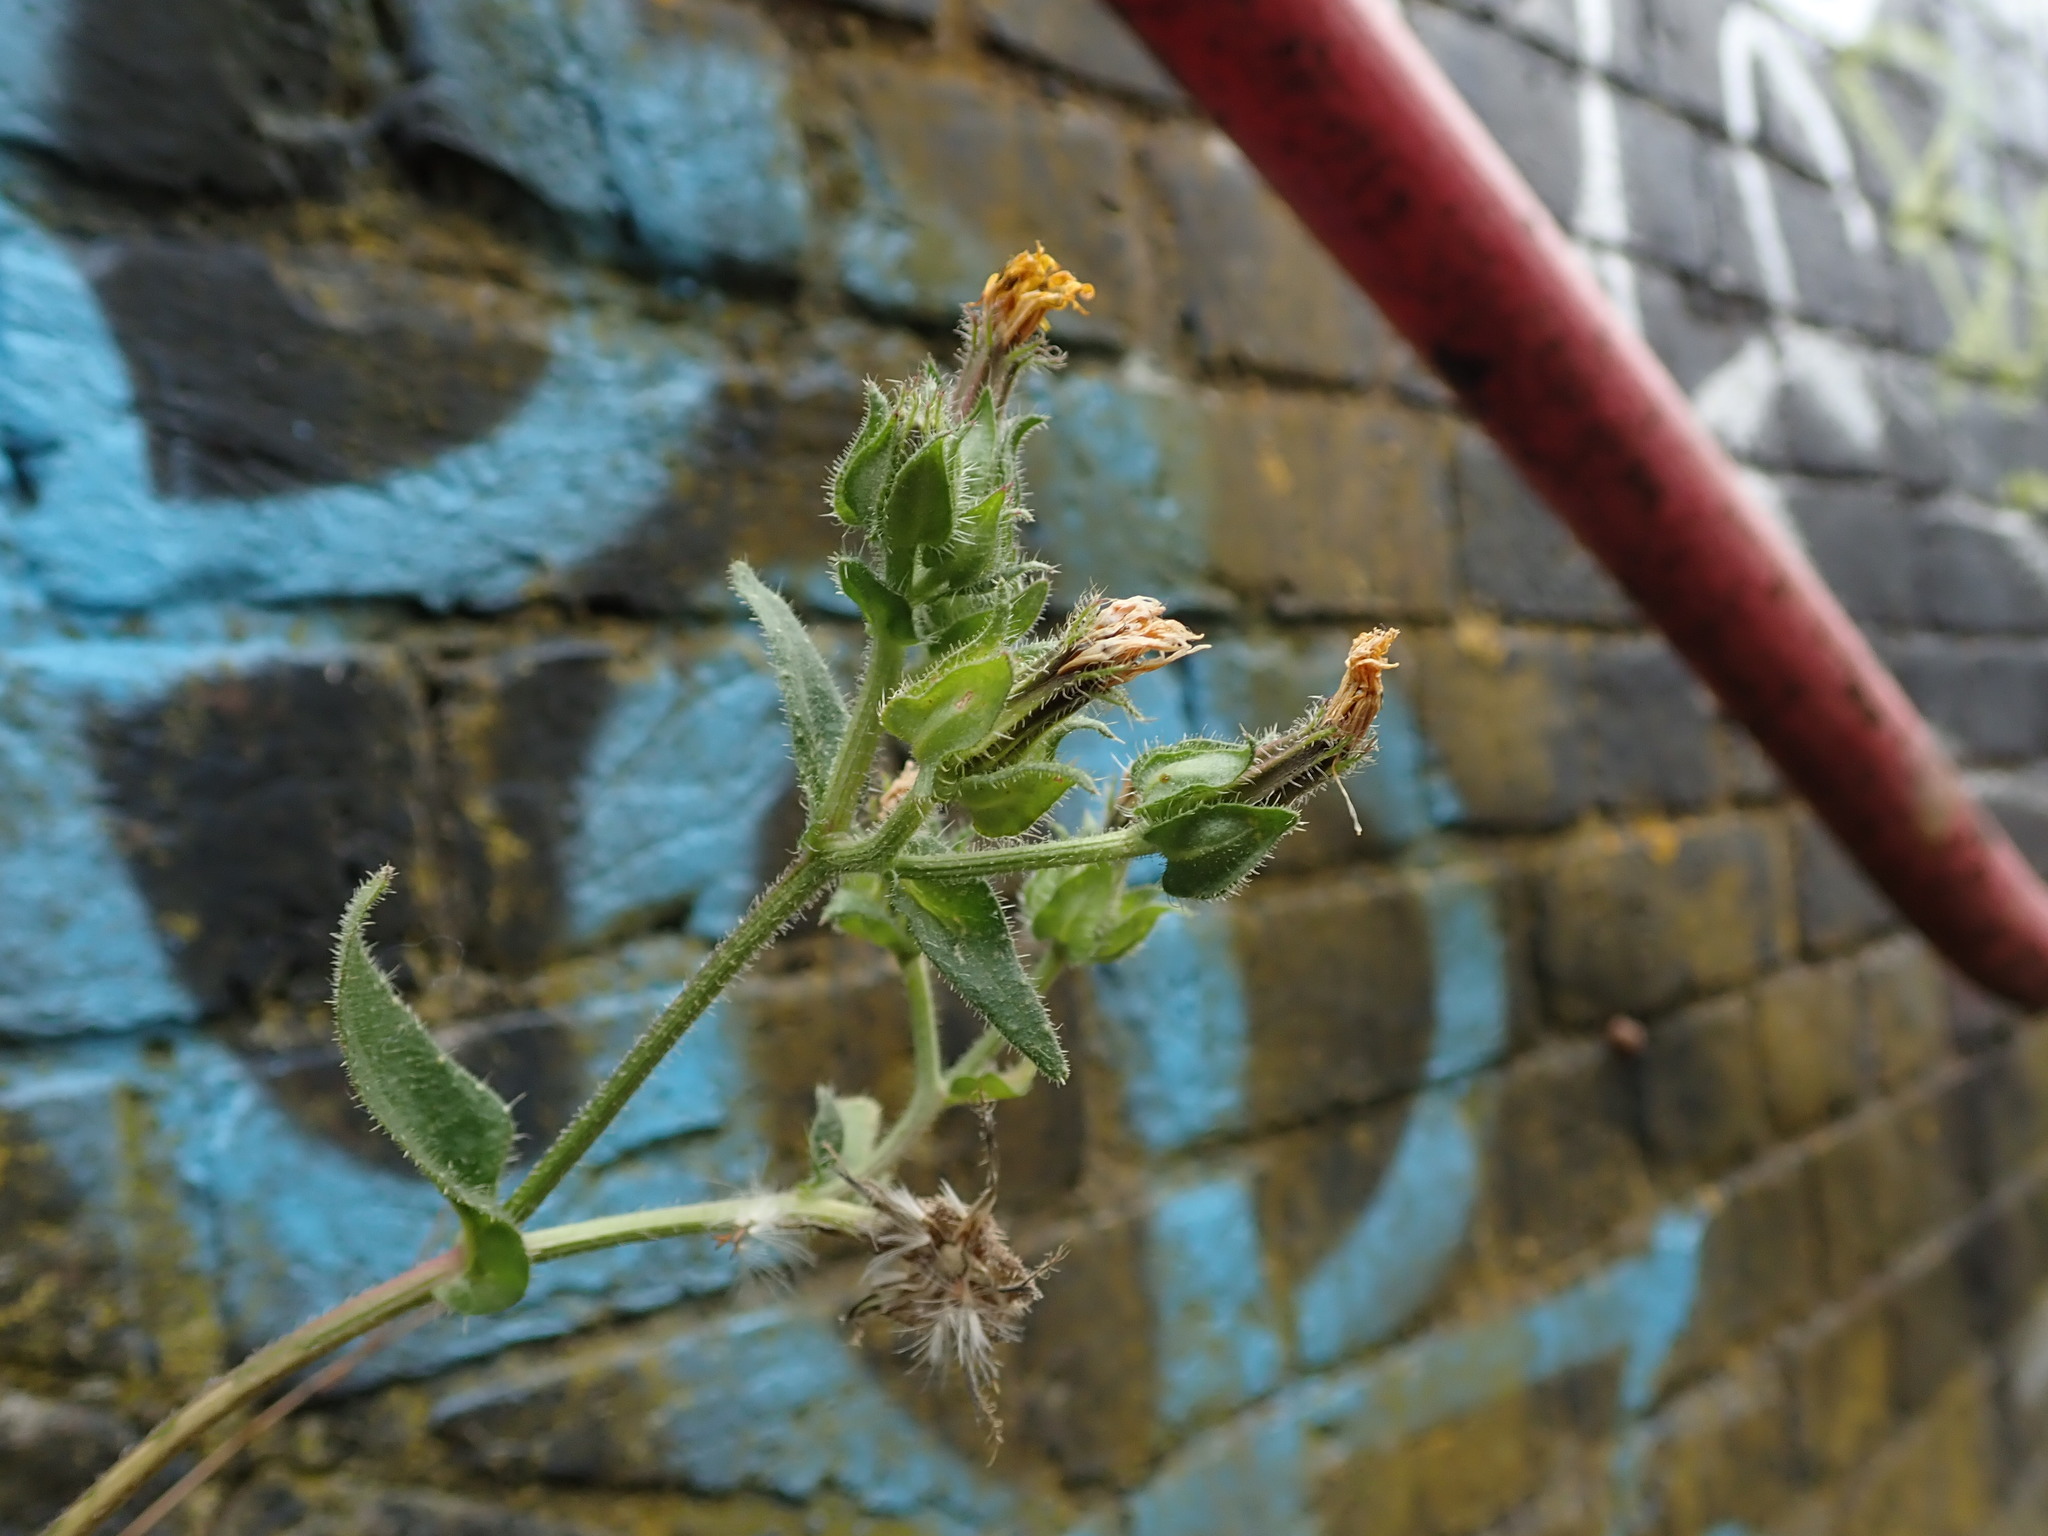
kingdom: Plantae
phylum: Tracheophyta
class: Magnoliopsida
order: Asterales
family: Asteraceae
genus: Helminthotheca
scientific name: Helminthotheca echioides
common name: Ox-tongue
